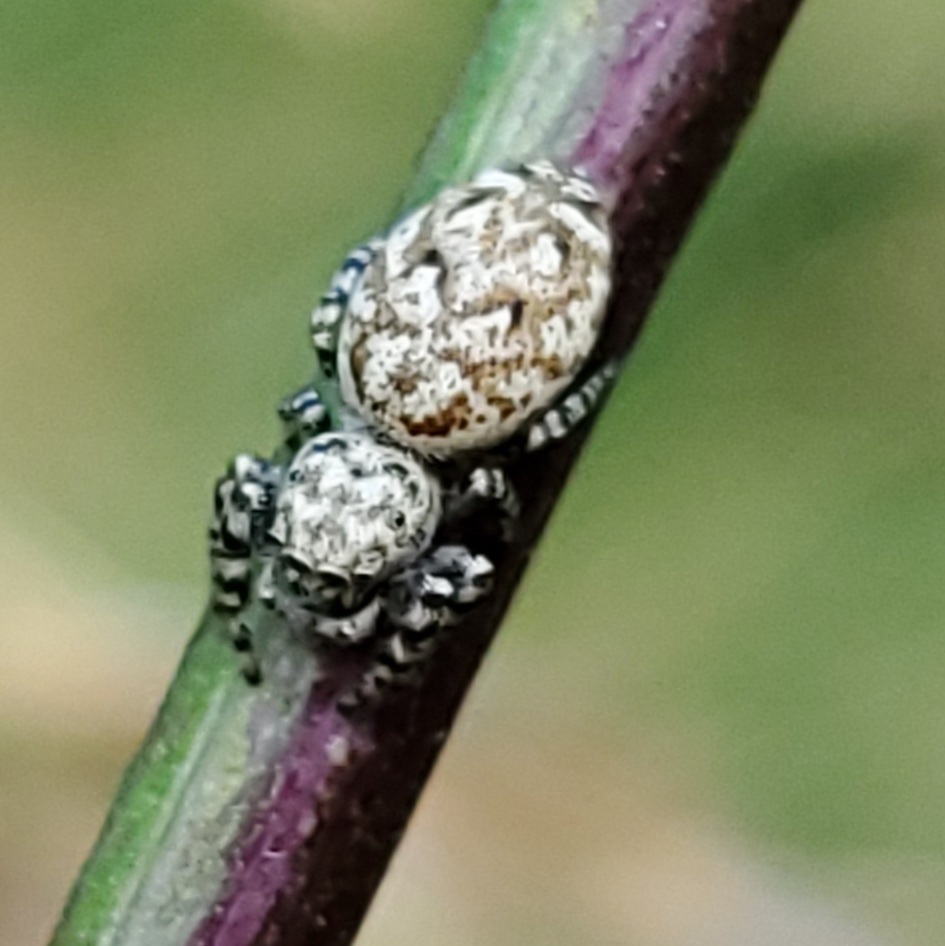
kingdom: Animalia
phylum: Arthropoda
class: Arachnida
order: Araneae
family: Salticidae
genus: Pelegrina
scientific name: Pelegrina galathea
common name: Jumping spiders
